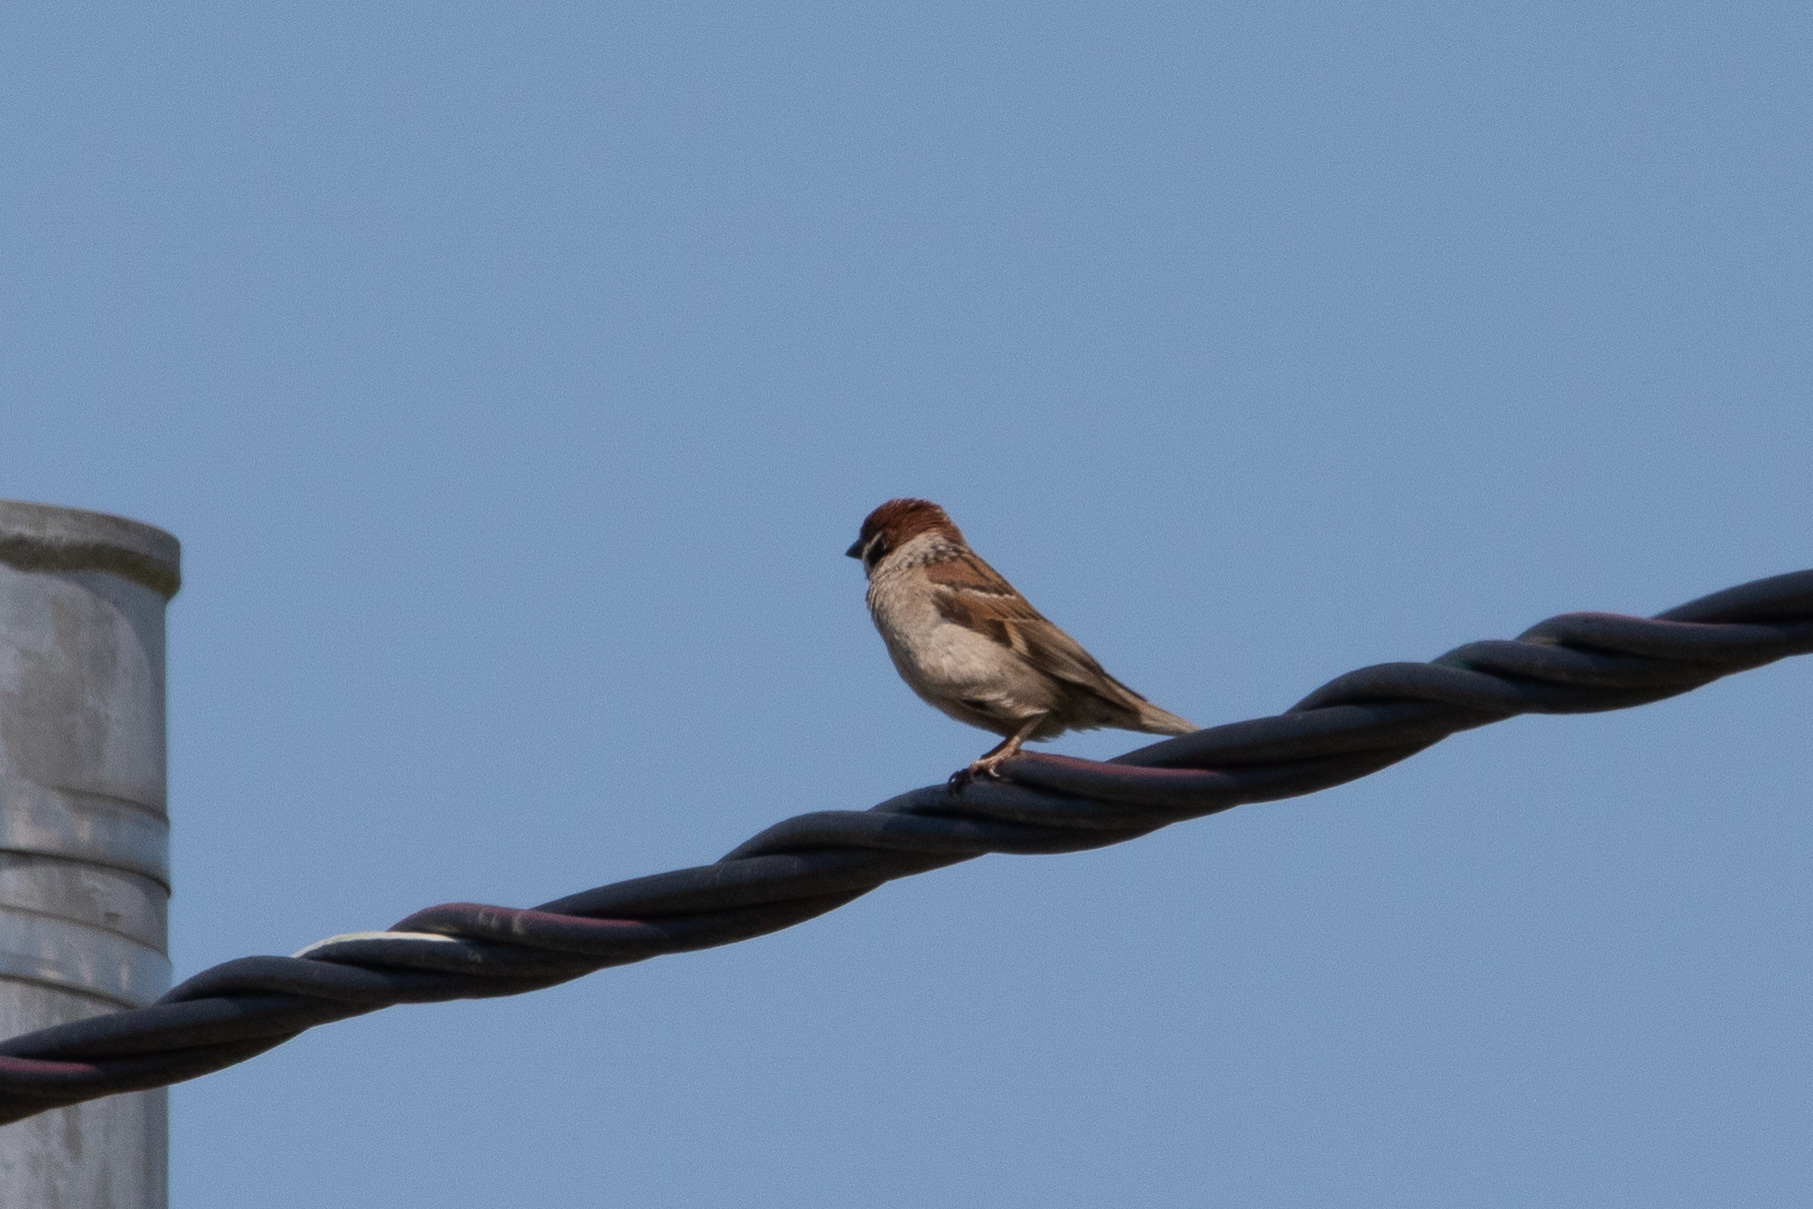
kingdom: Animalia
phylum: Chordata
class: Aves
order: Passeriformes
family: Passeridae
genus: Passer
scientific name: Passer montanus
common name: Eurasian tree sparrow
